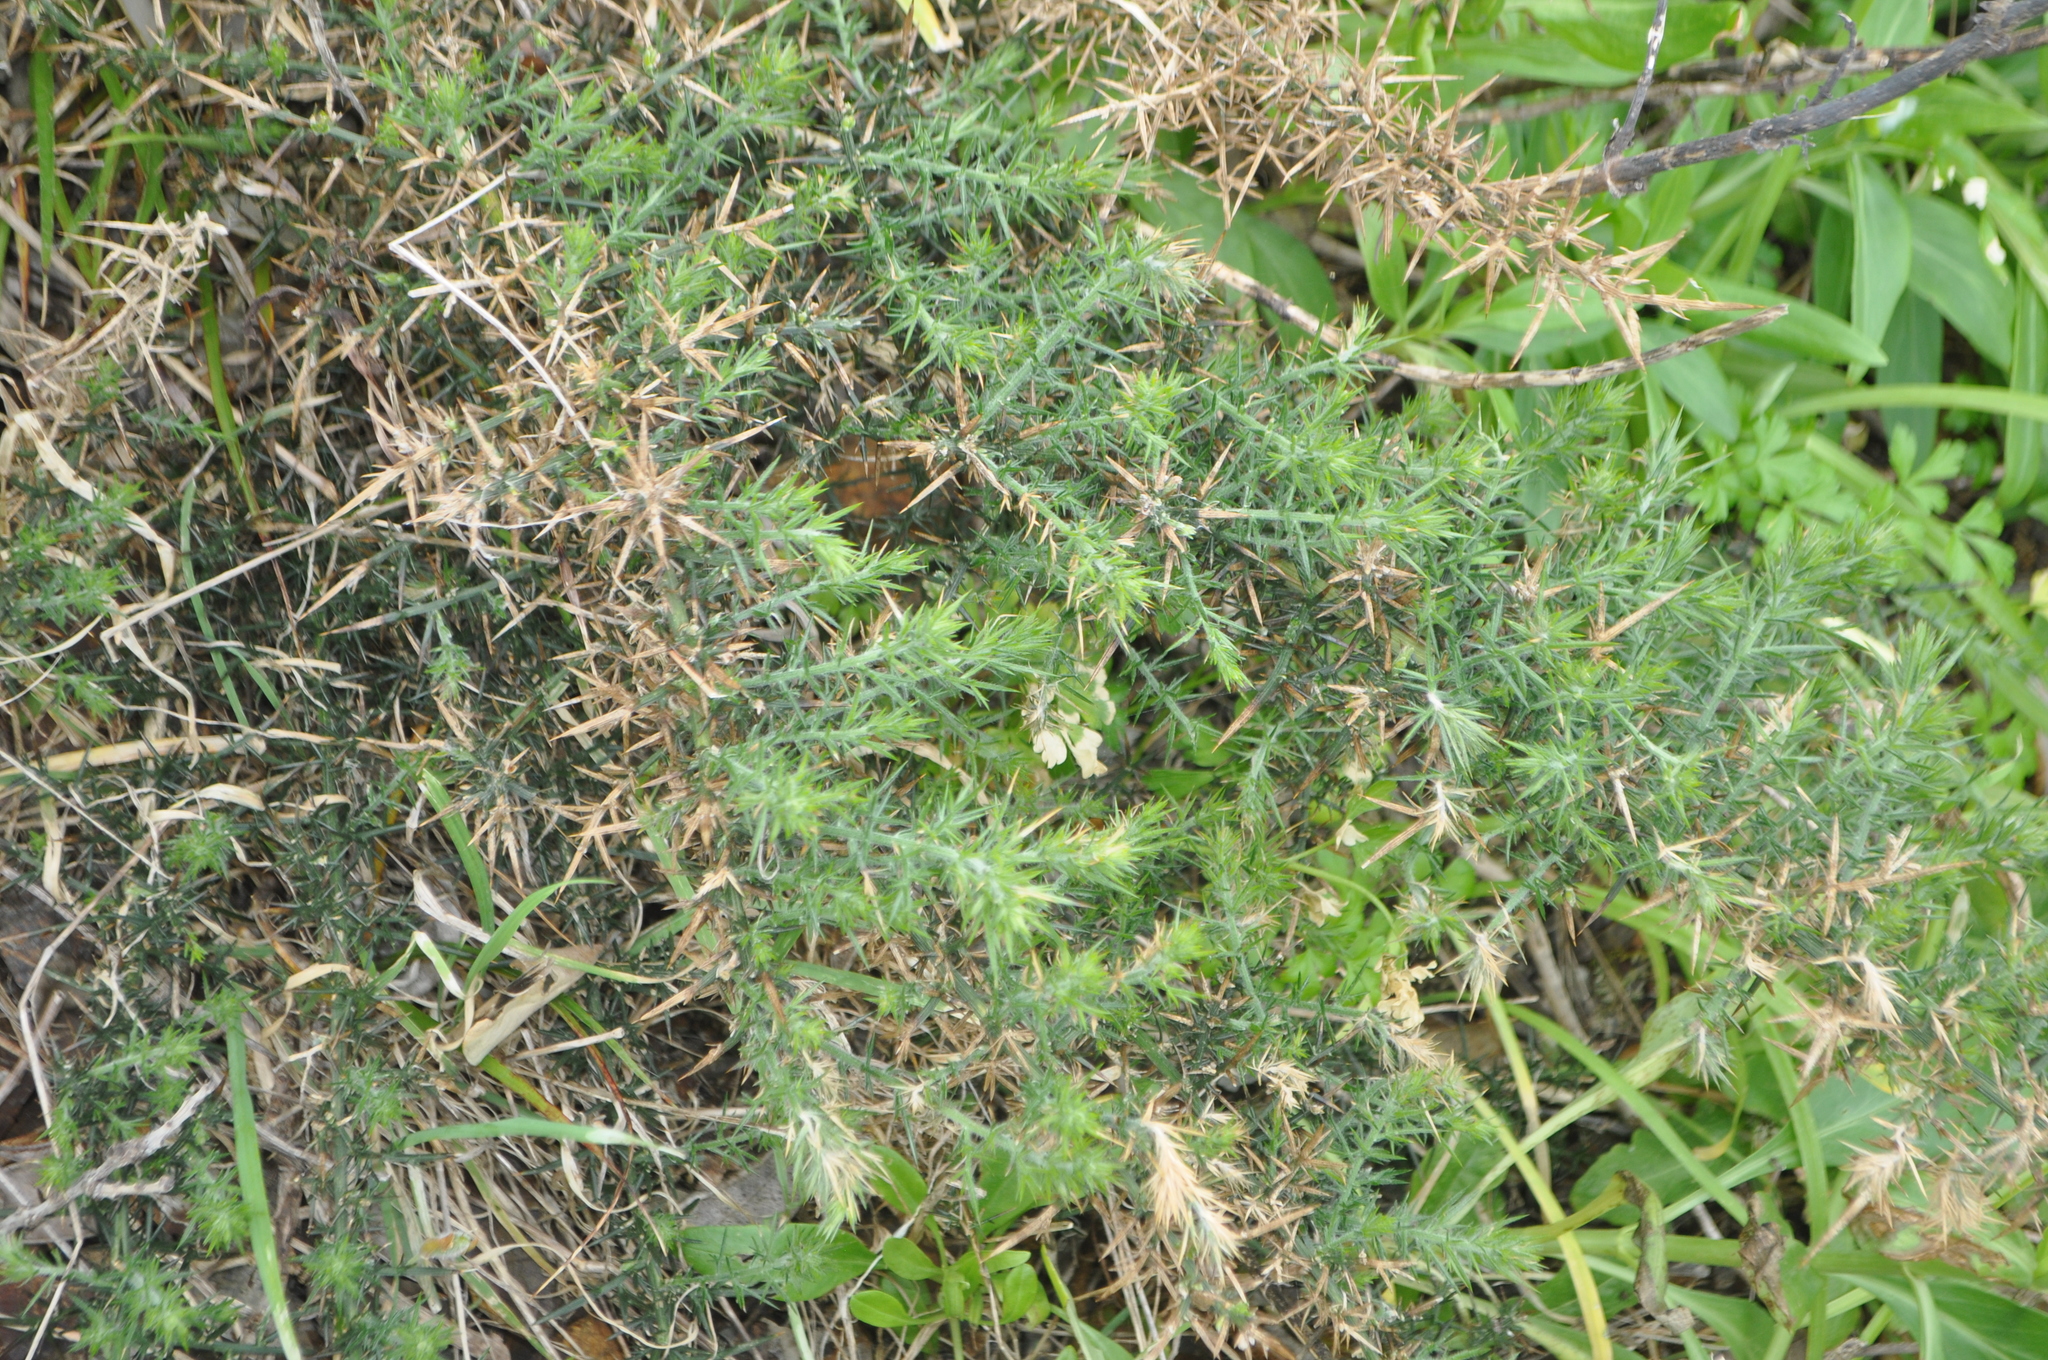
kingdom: Plantae
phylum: Tracheophyta
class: Magnoliopsida
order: Fabales
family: Fabaceae
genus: Ulex
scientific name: Ulex europaeus
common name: Common gorse
